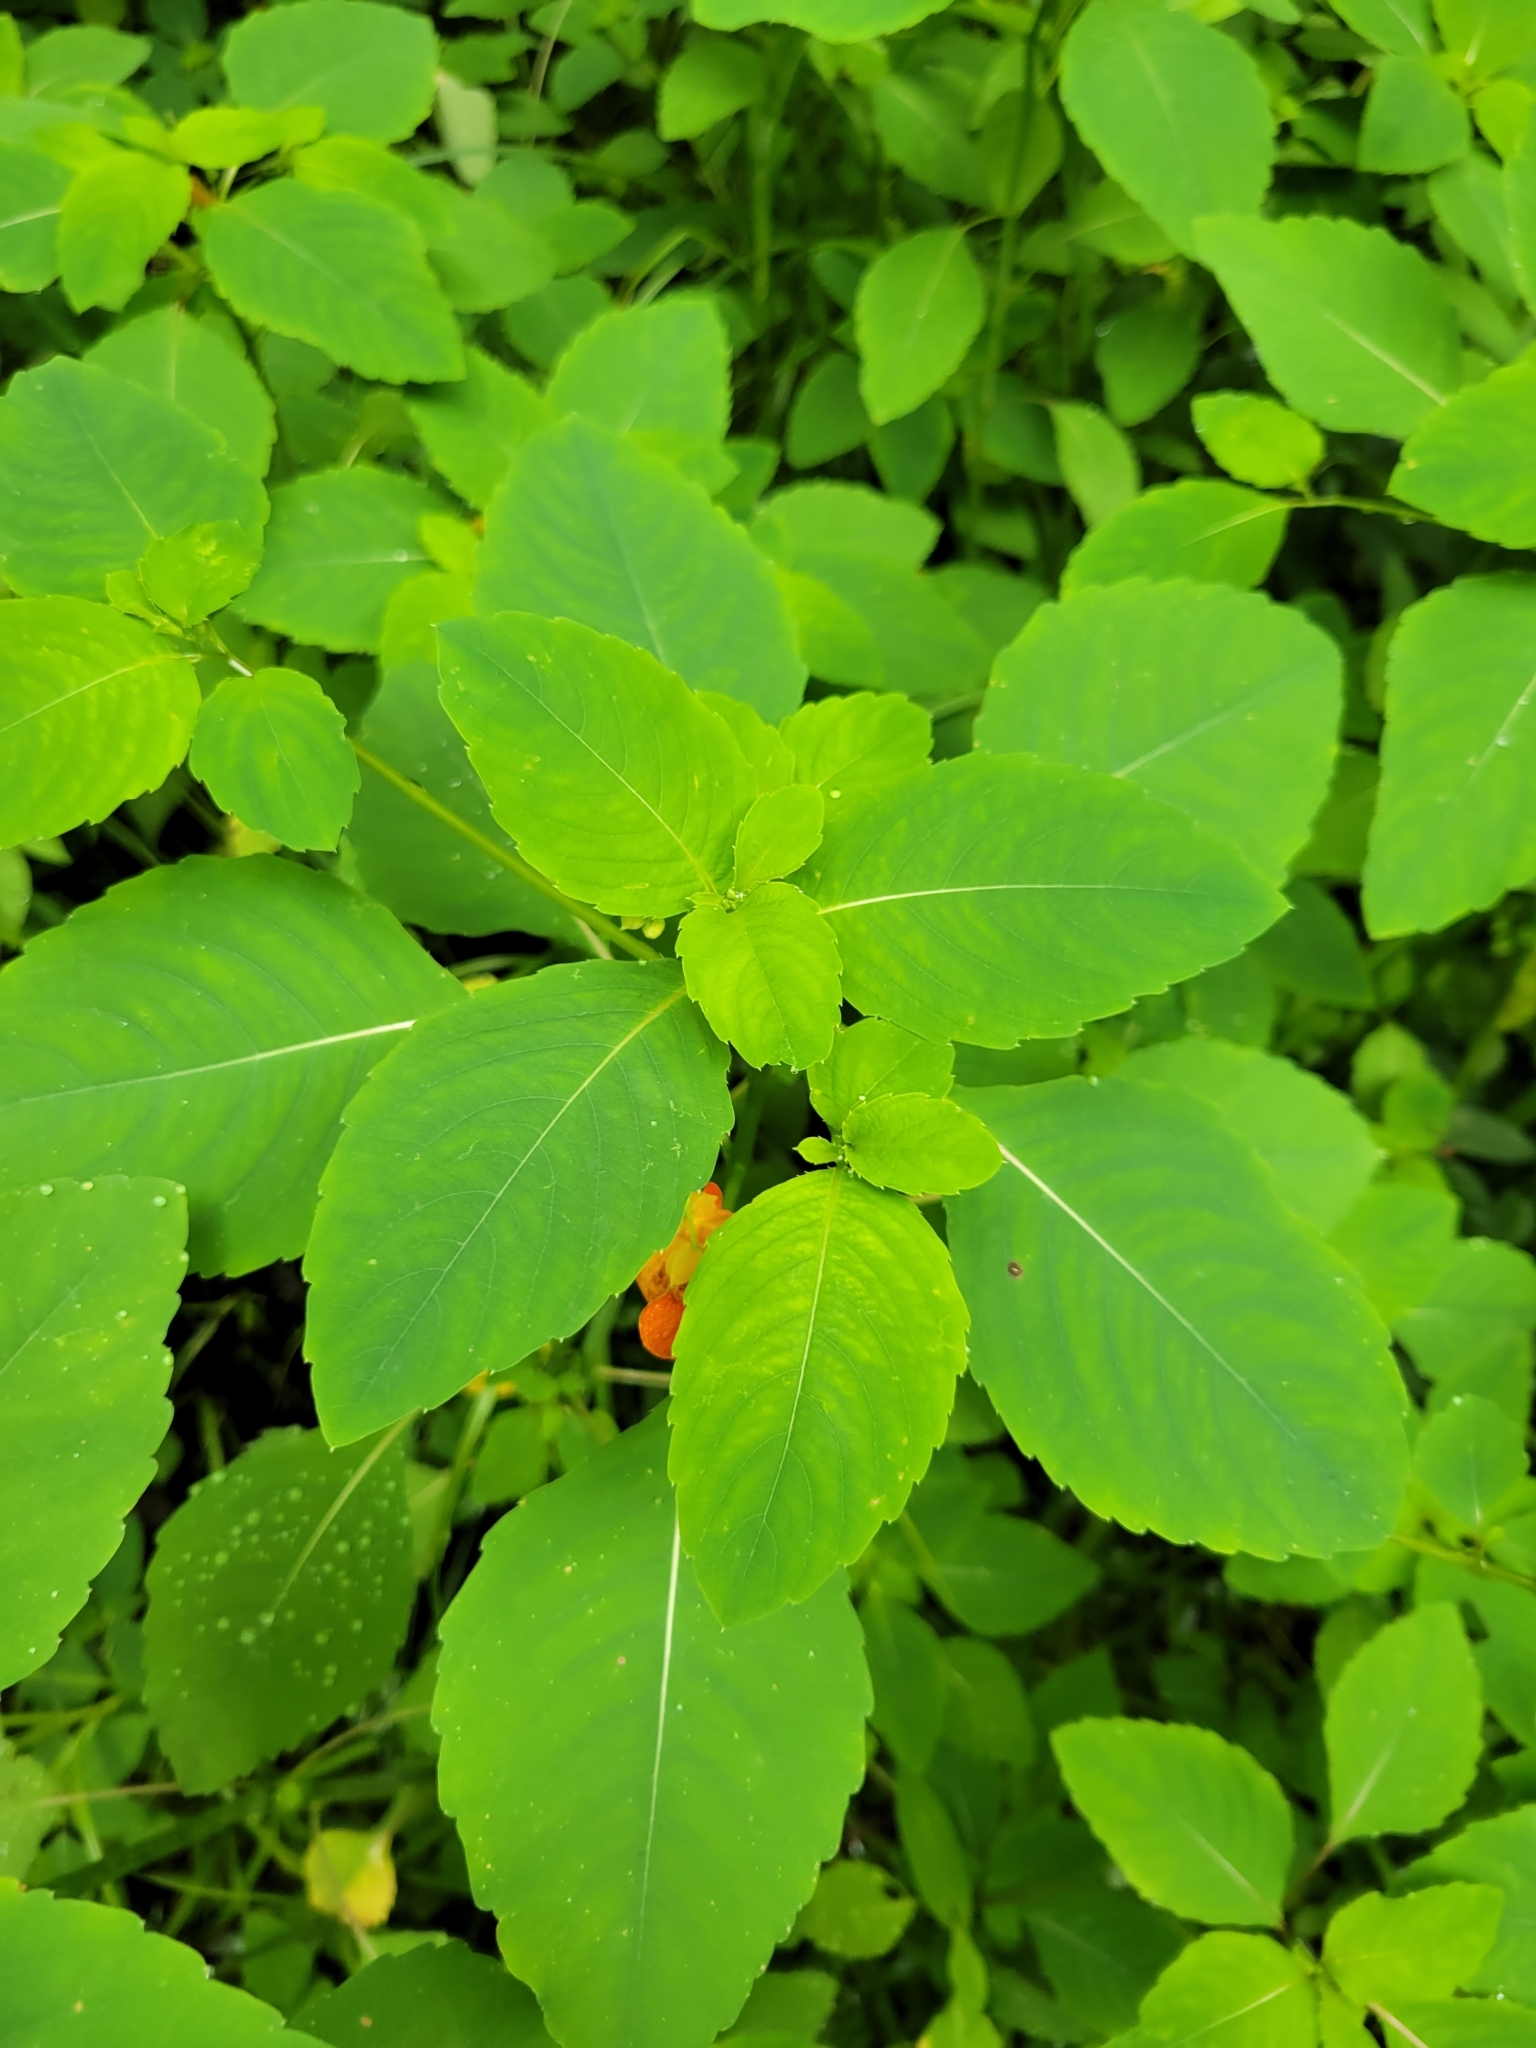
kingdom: Plantae
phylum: Tracheophyta
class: Magnoliopsida
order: Ericales
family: Balsaminaceae
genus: Impatiens
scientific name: Impatiens capensis
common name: Orange balsam
